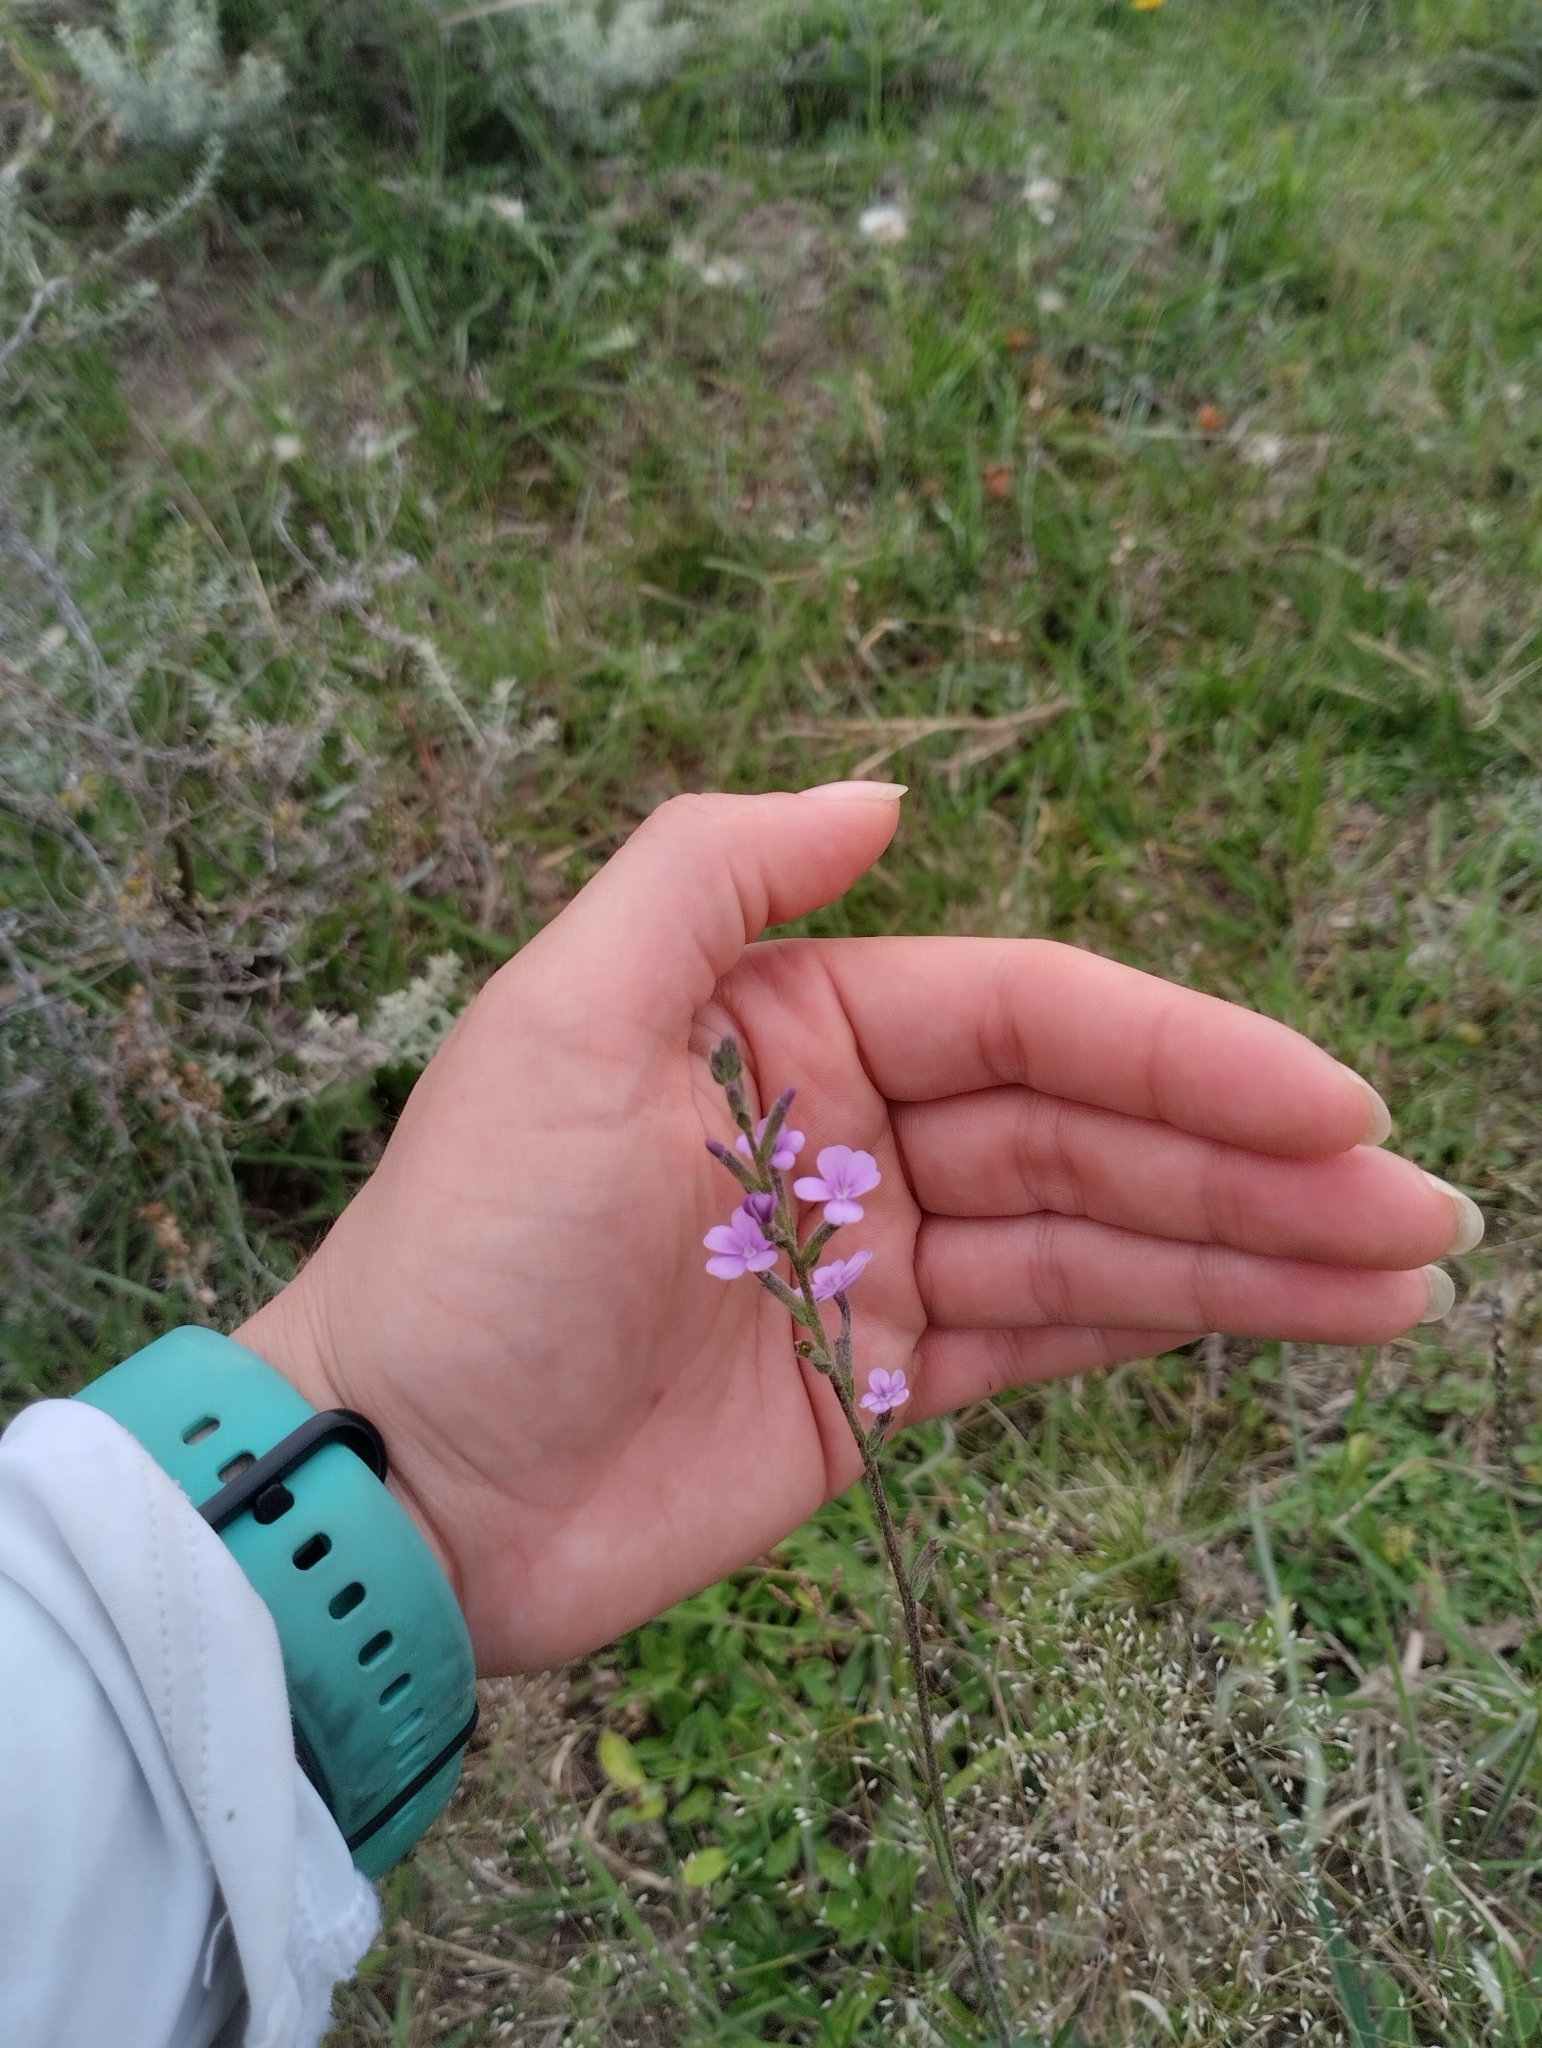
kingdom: Plantae
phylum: Tracheophyta
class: Magnoliopsida
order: Lamiales
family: Orobanchaceae
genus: Buchnera
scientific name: Buchnera longifolia
